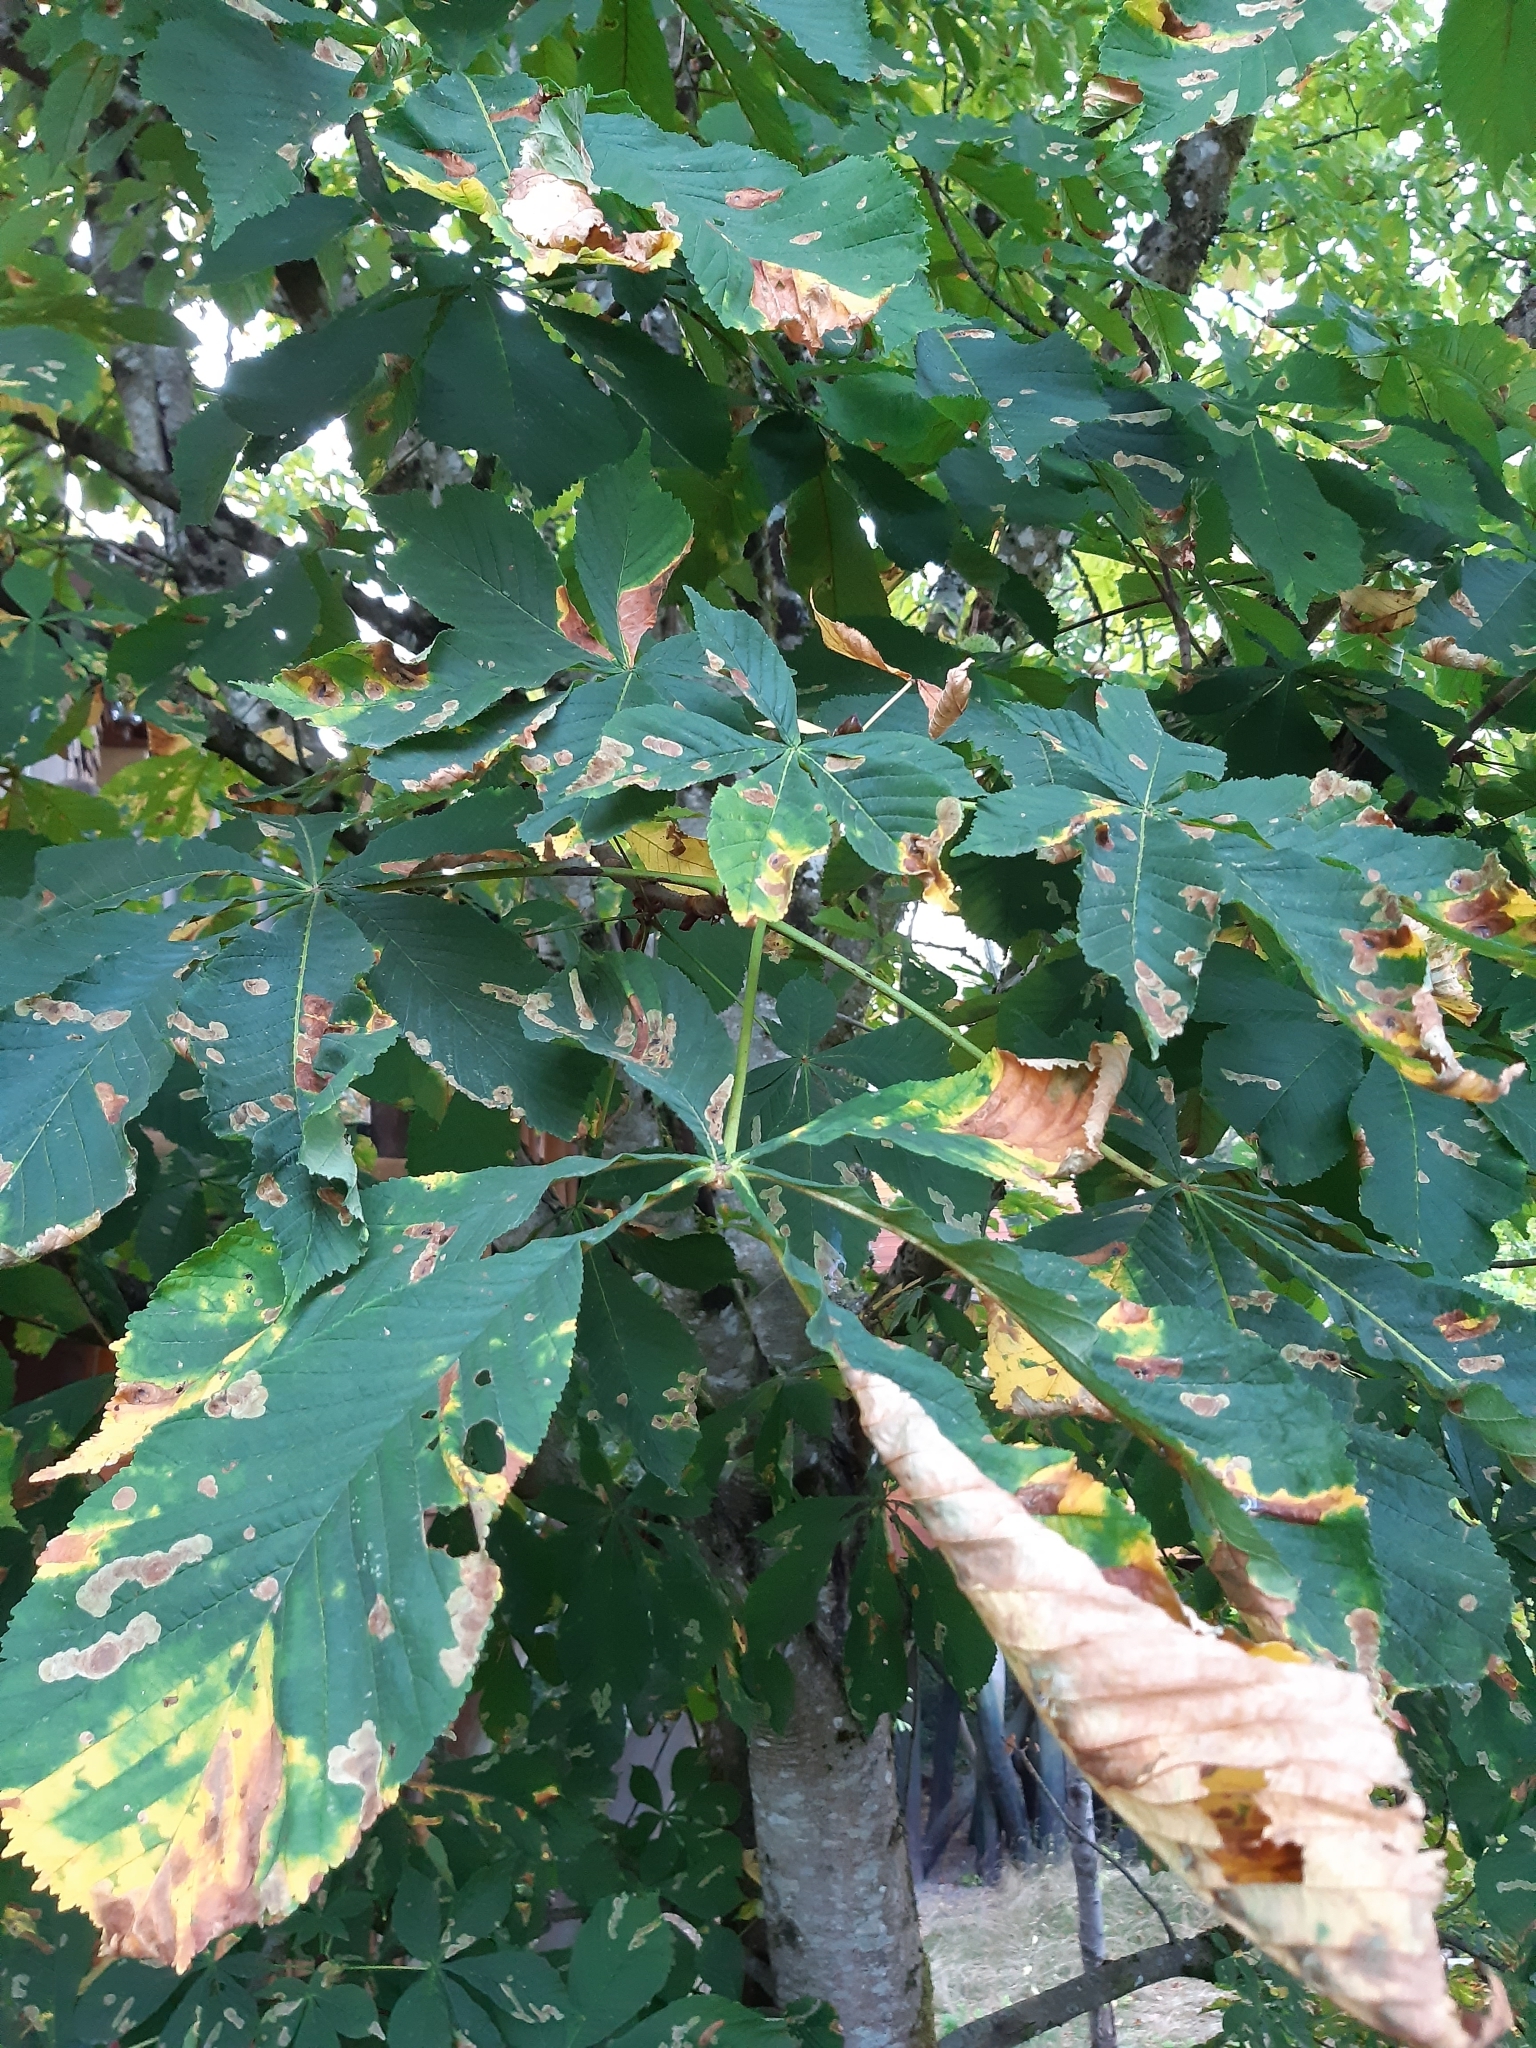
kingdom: Plantae
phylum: Tracheophyta
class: Magnoliopsida
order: Sapindales
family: Sapindaceae
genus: Aesculus
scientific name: Aesculus hippocastanum
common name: Horse-chestnut
